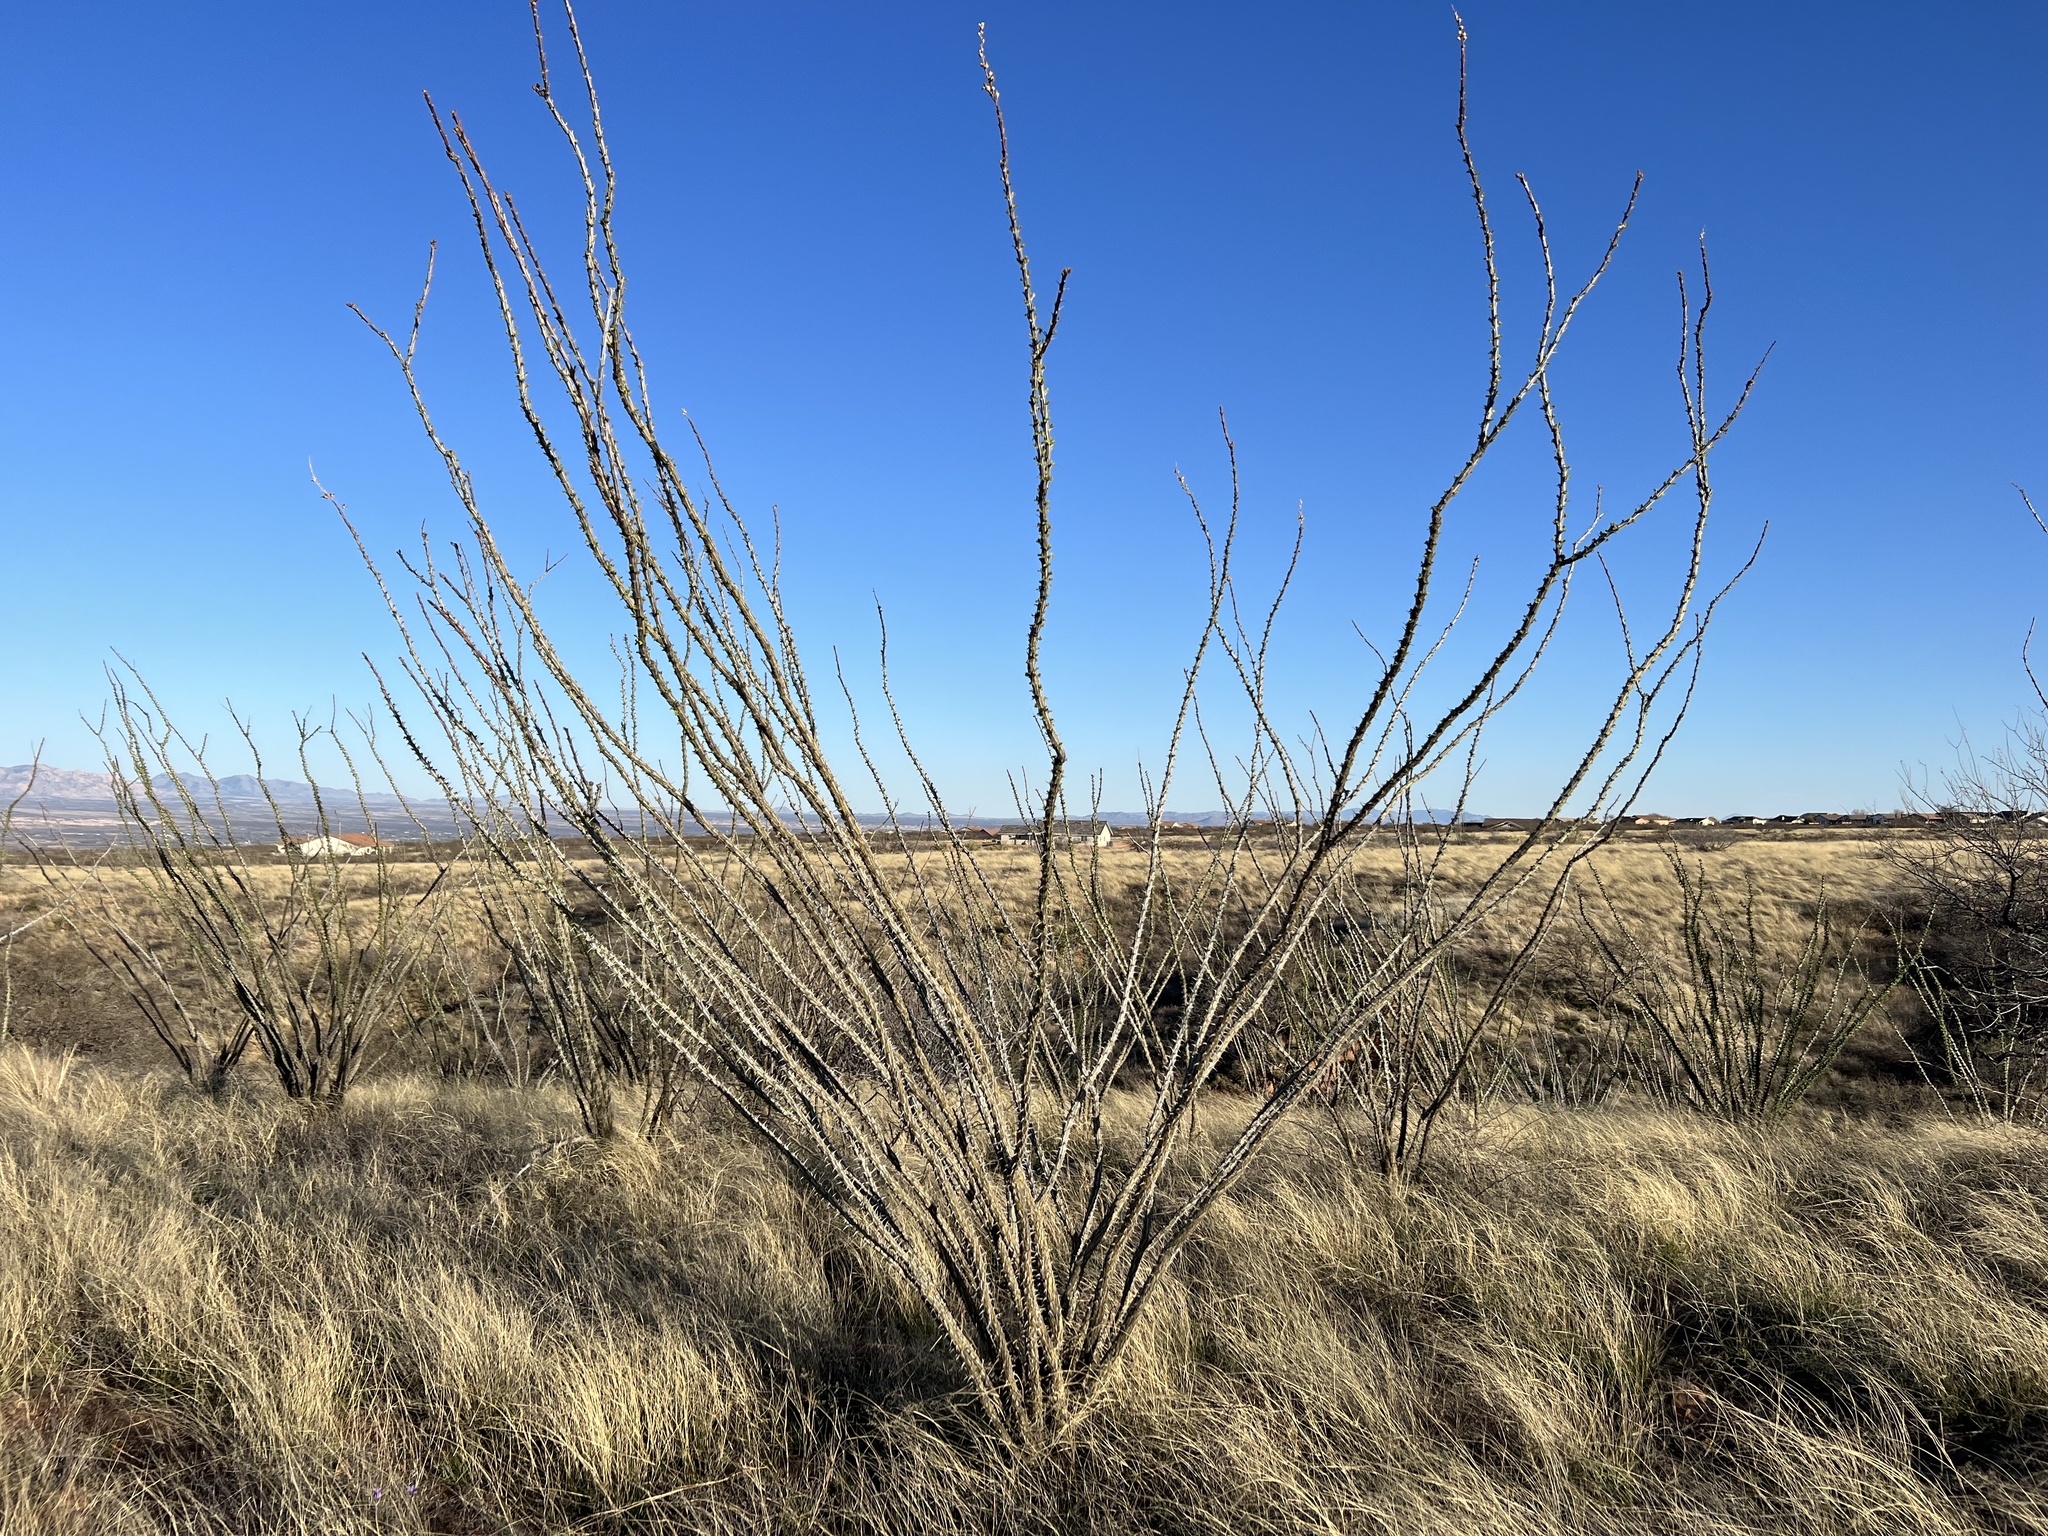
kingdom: Plantae
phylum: Tracheophyta
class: Magnoliopsida
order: Ericales
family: Fouquieriaceae
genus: Fouquieria
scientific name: Fouquieria splendens
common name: Vine-cactus
